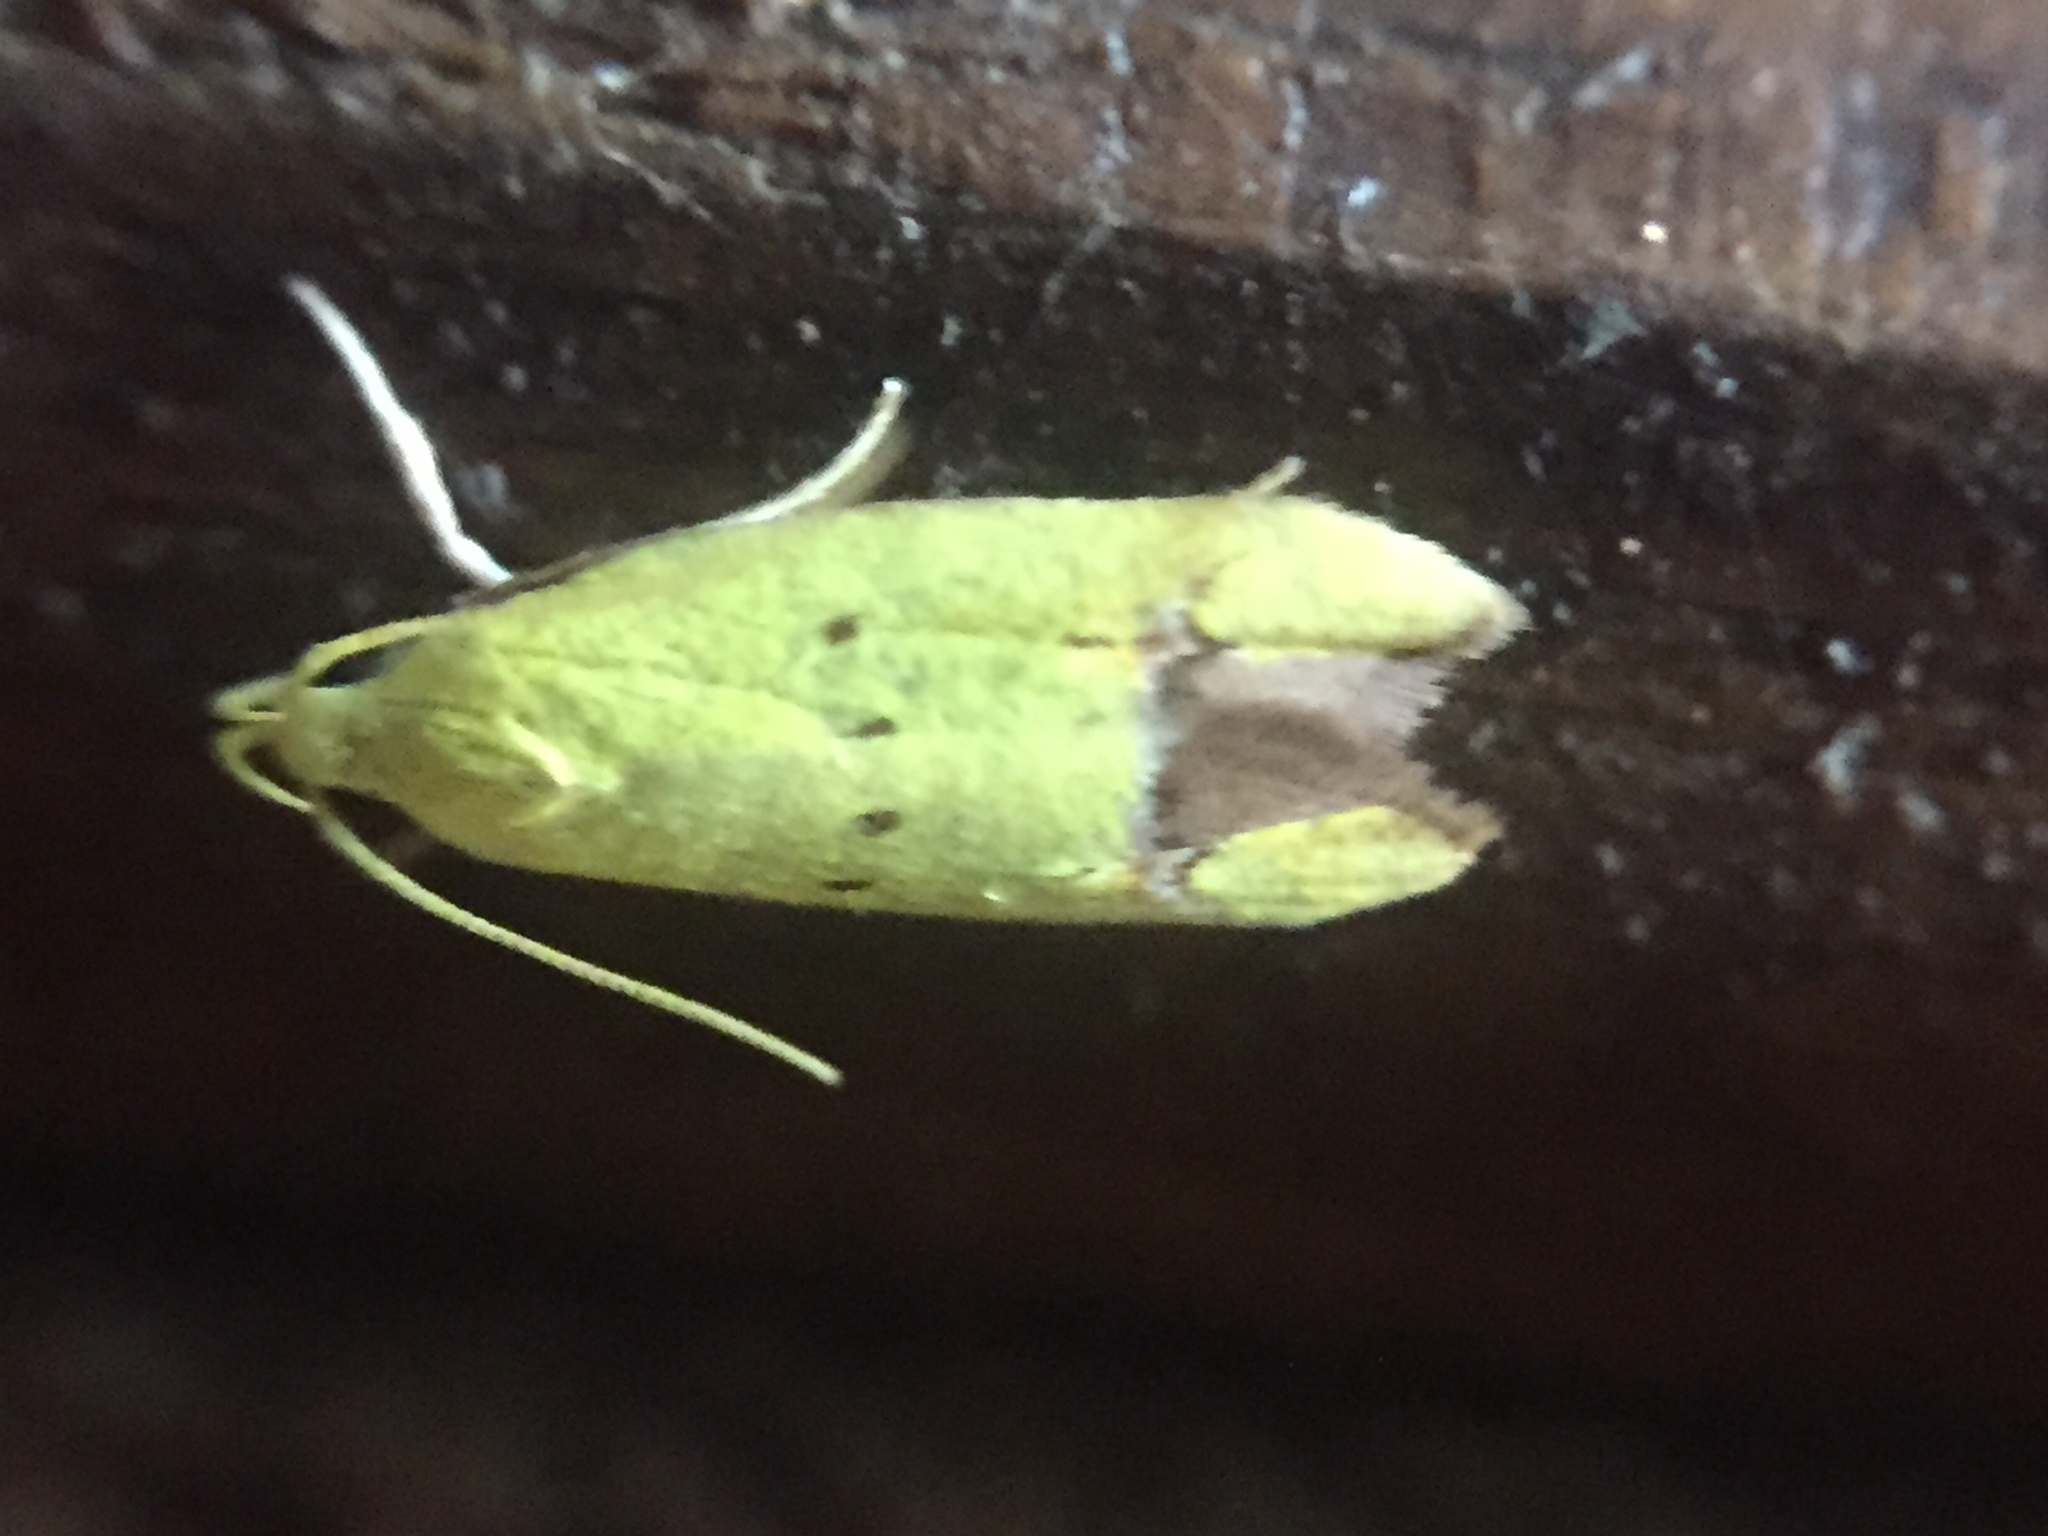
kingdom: Animalia
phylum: Arthropoda
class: Insecta
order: Lepidoptera
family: Oecophoridae
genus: Gymnobathra
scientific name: Gymnobathra flavidella
